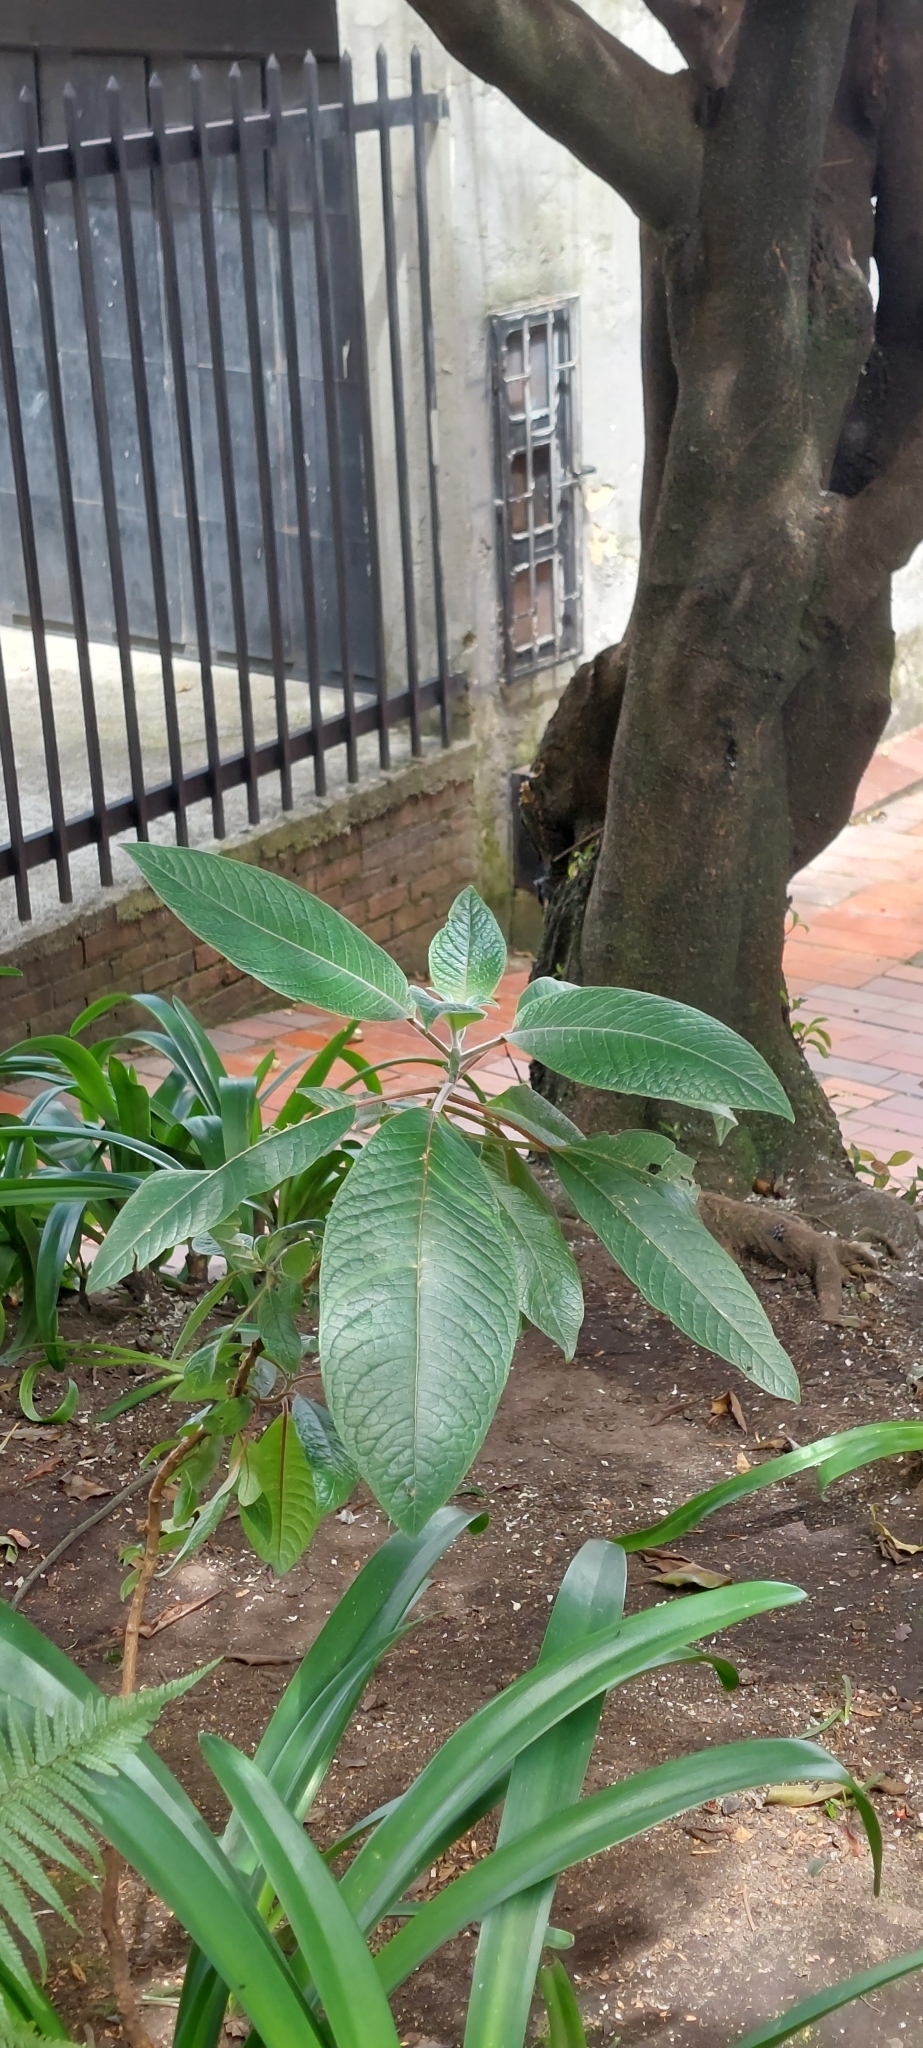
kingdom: Plantae
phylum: Tracheophyta
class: Magnoliopsida
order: Myrtales
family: Onagraceae
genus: Fuchsia
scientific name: Fuchsia boliviana
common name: Bolivian fuchsia
